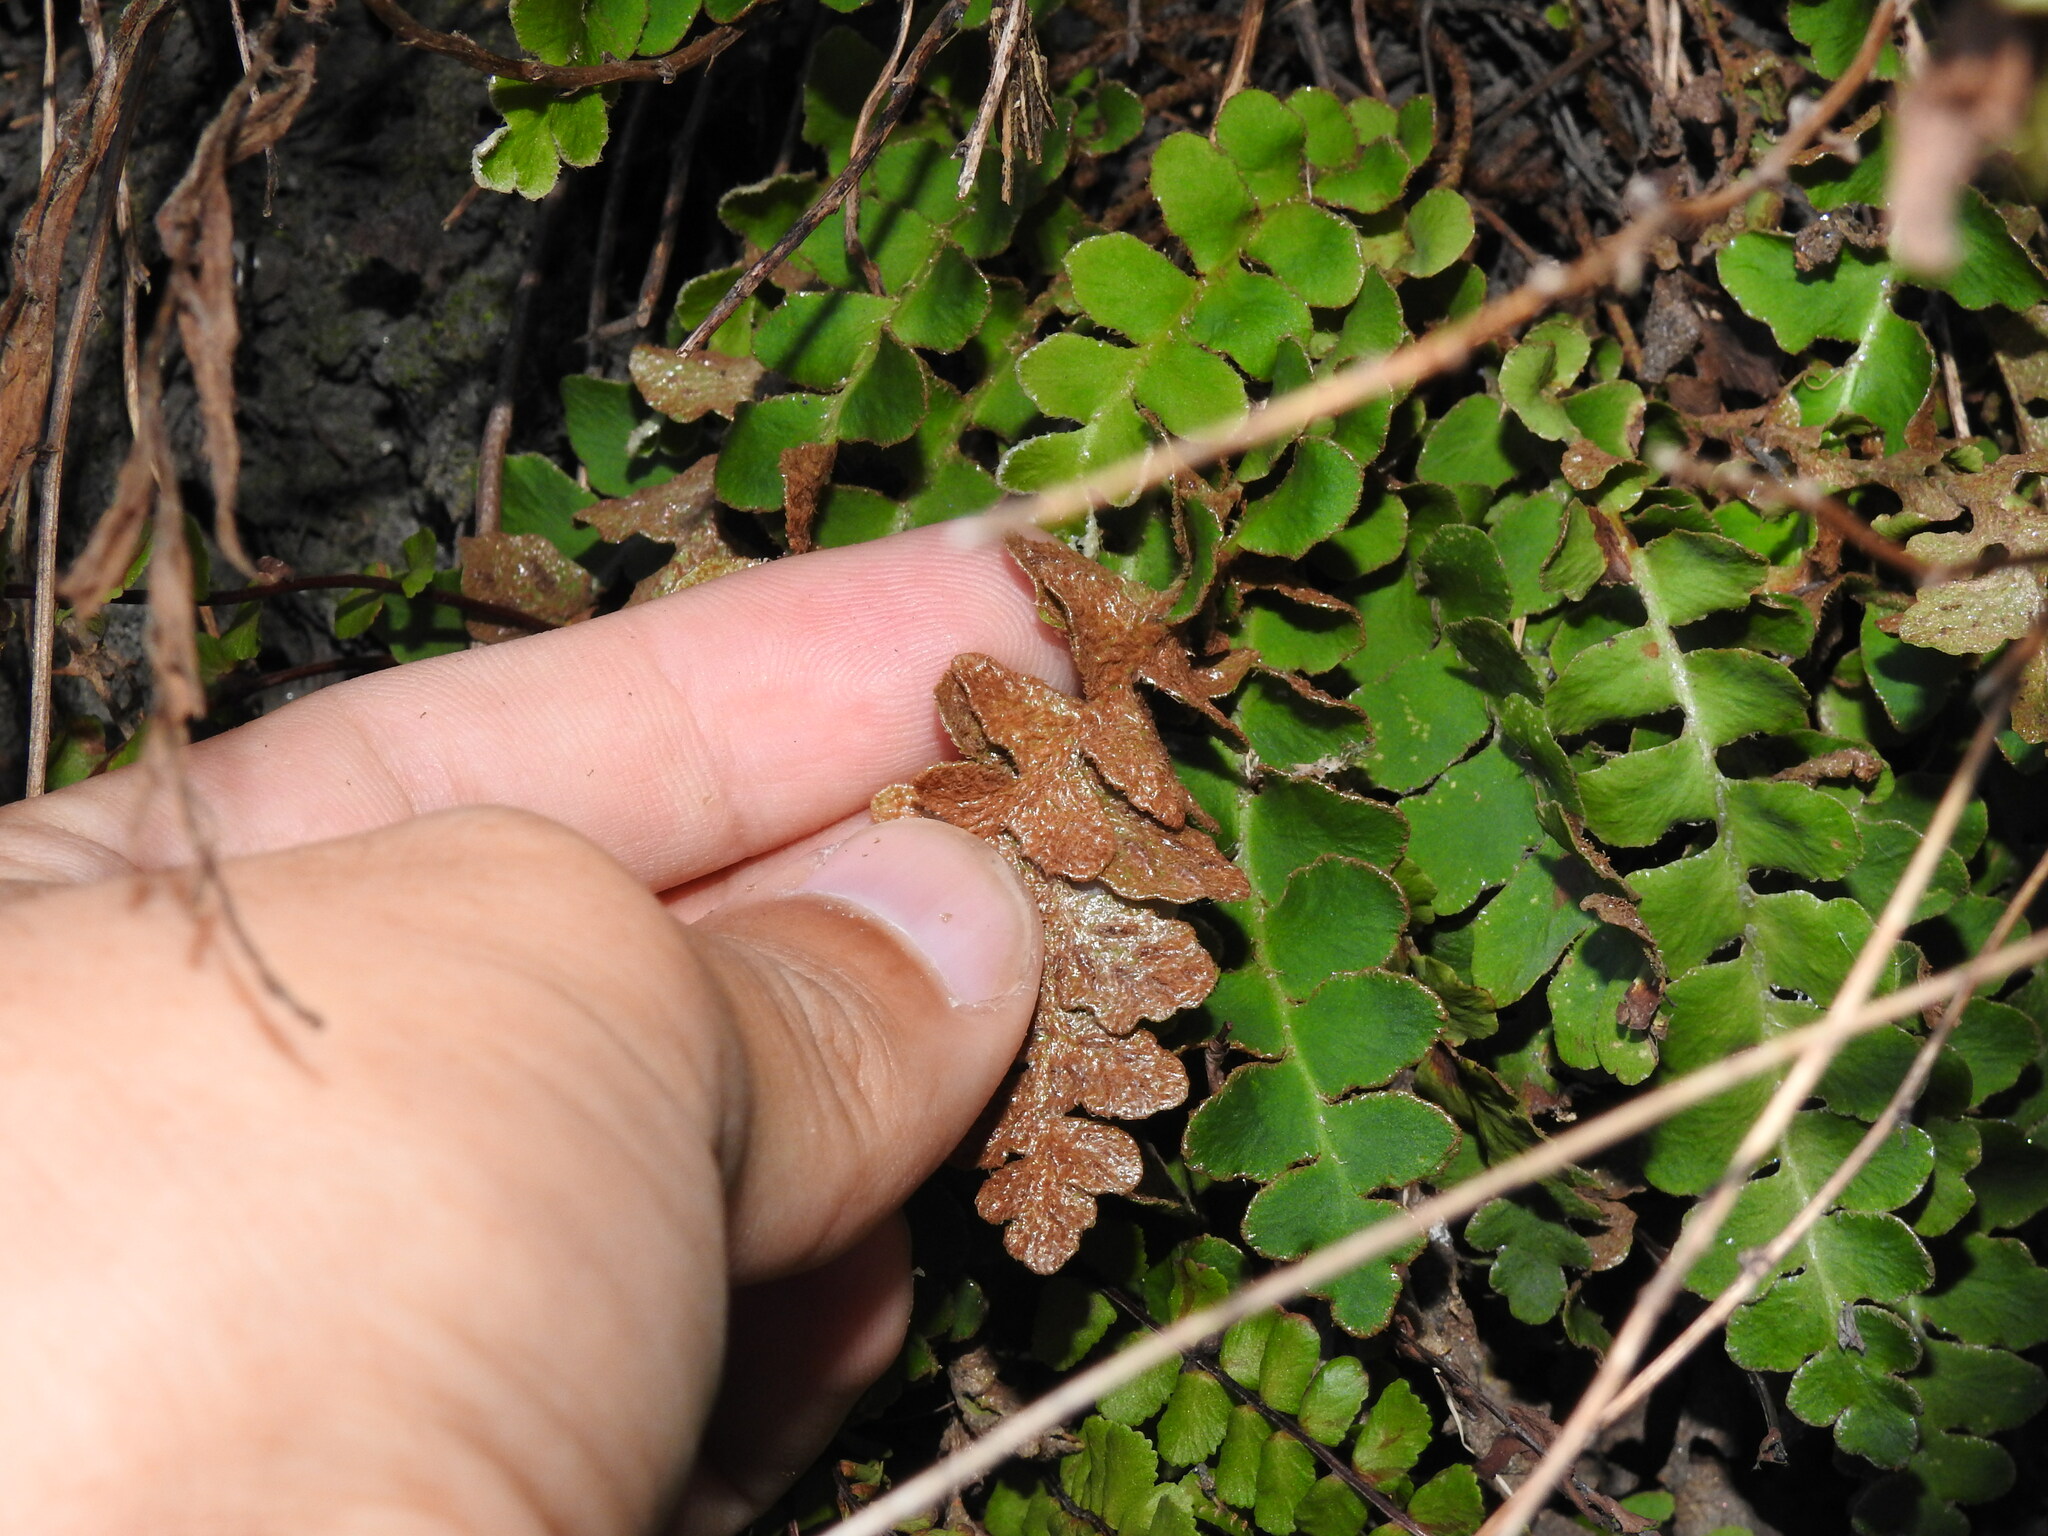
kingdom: Plantae
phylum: Tracheophyta
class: Polypodiopsida
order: Polypodiales
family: Aspleniaceae
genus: Asplenium
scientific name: Asplenium ceterach
